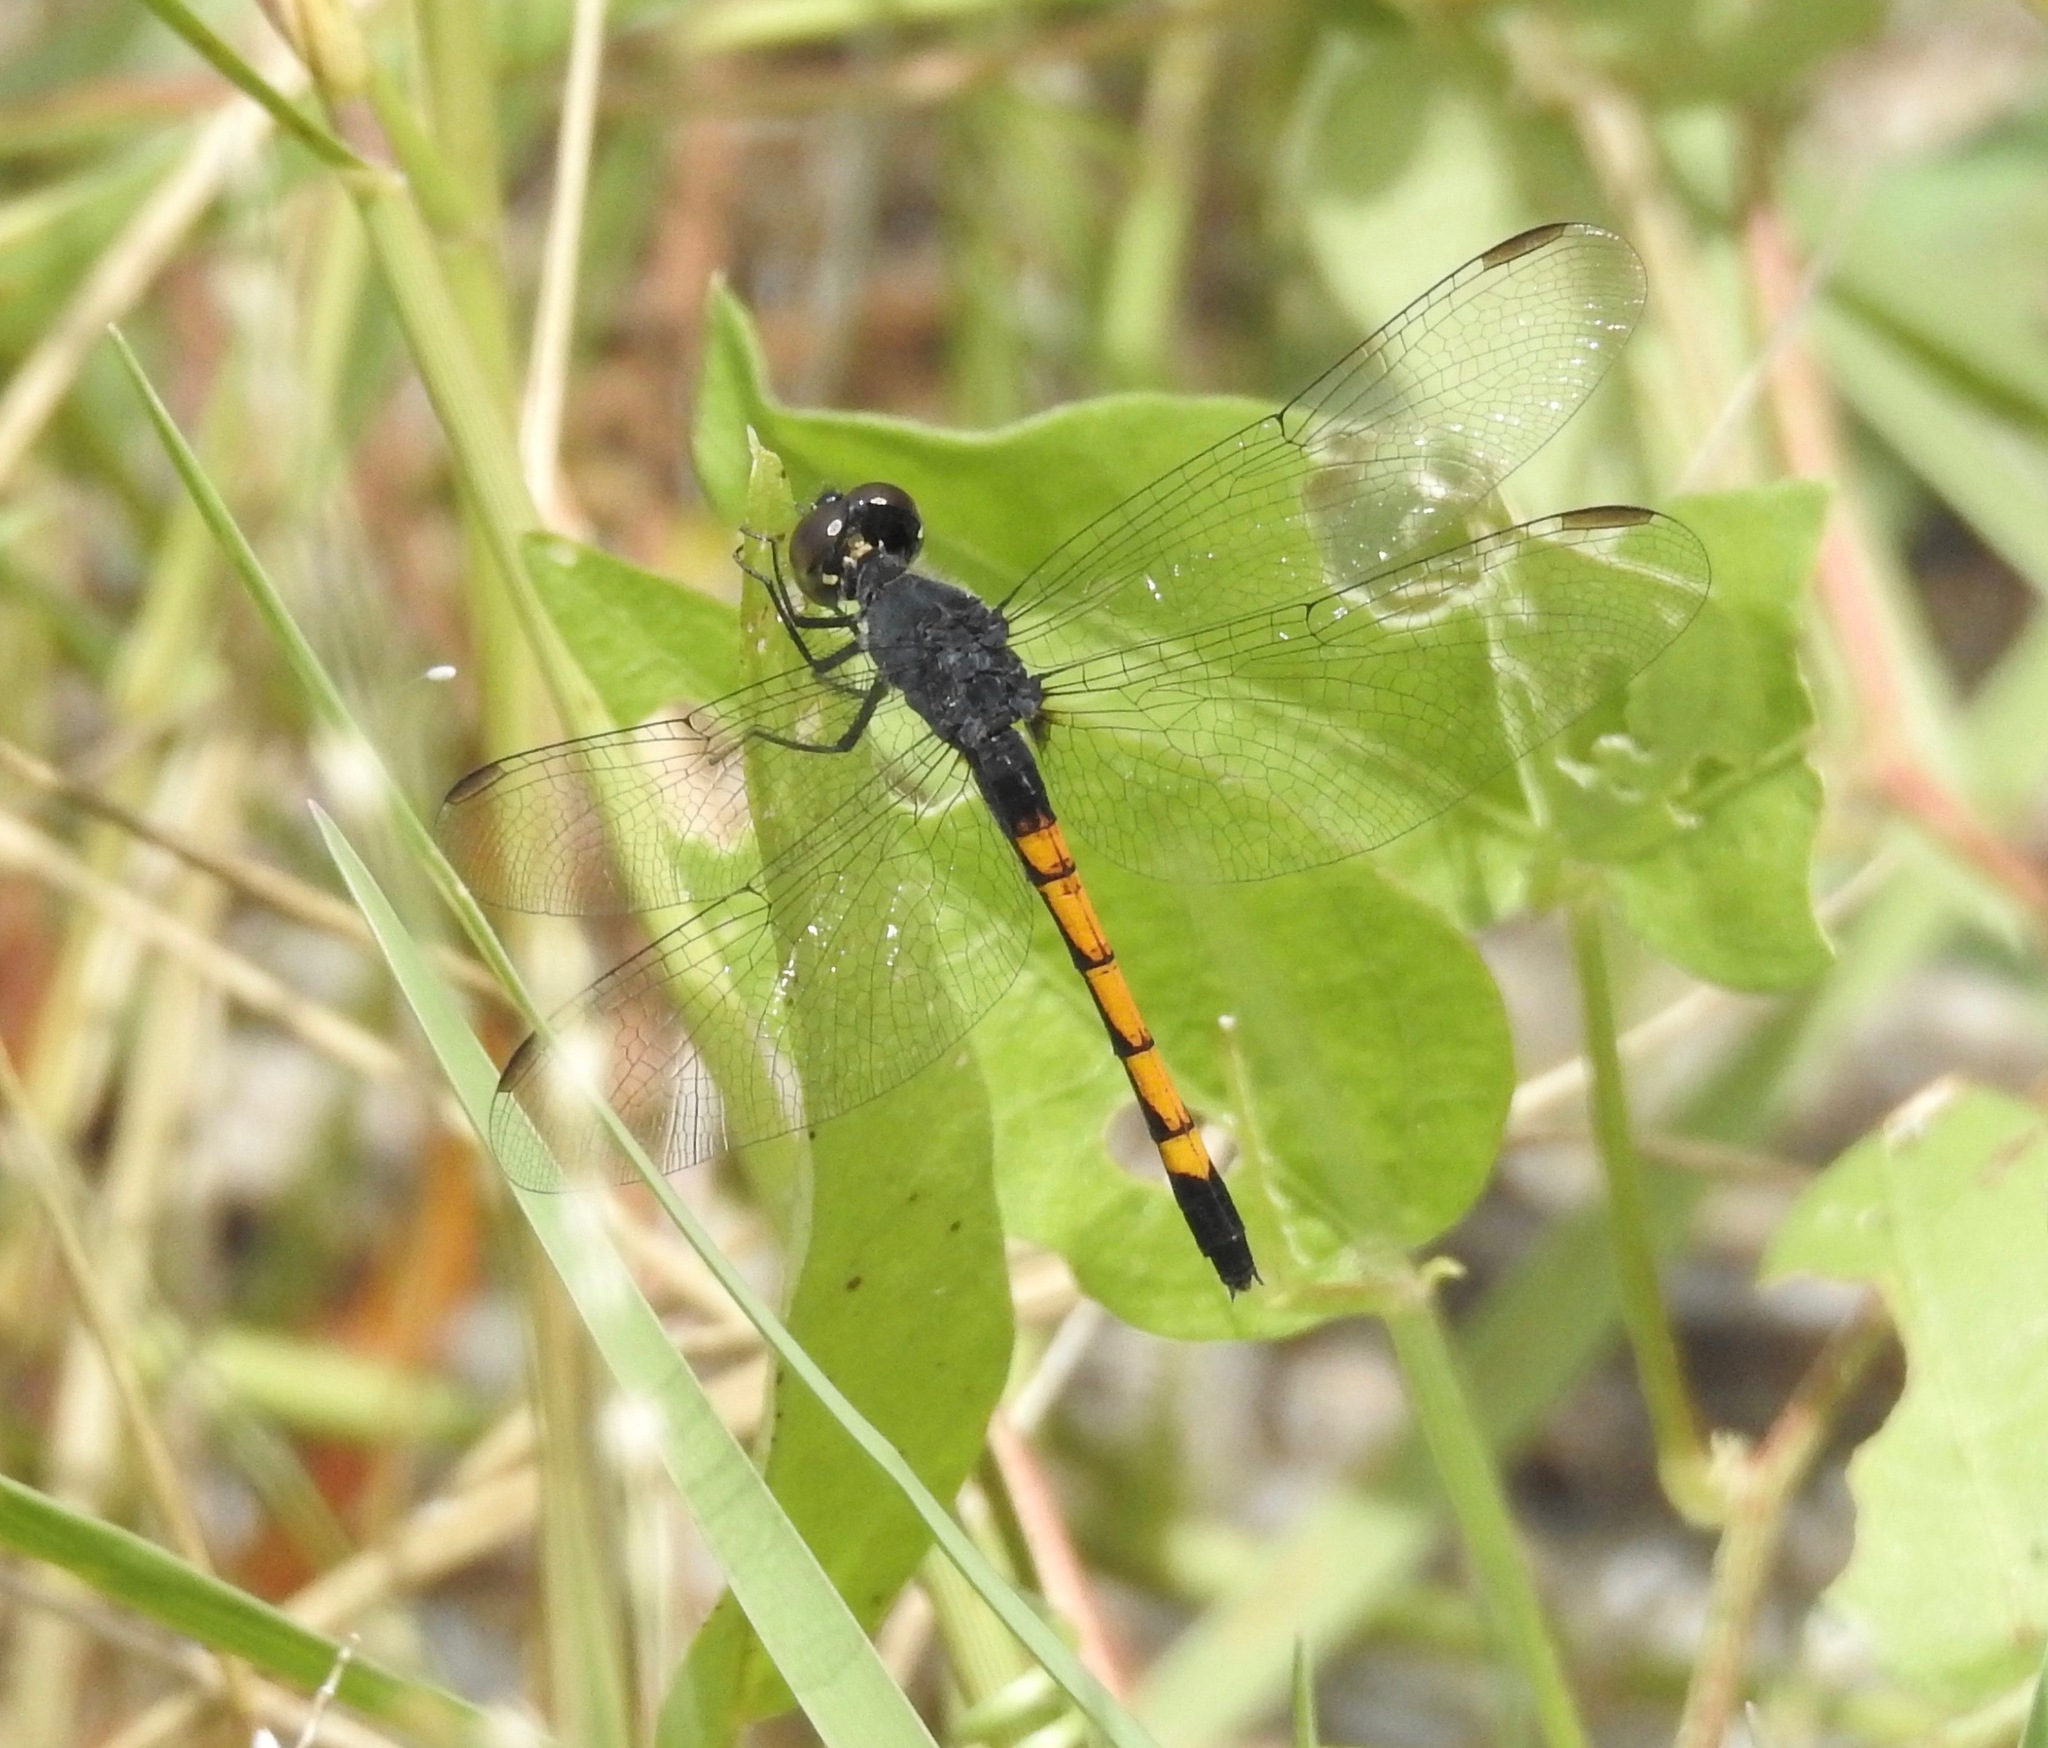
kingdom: Animalia
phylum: Arthropoda
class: Insecta
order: Odonata
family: Libellulidae
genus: Erythrodiplax
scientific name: Erythrodiplax berenice
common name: Seaside dragonlet
